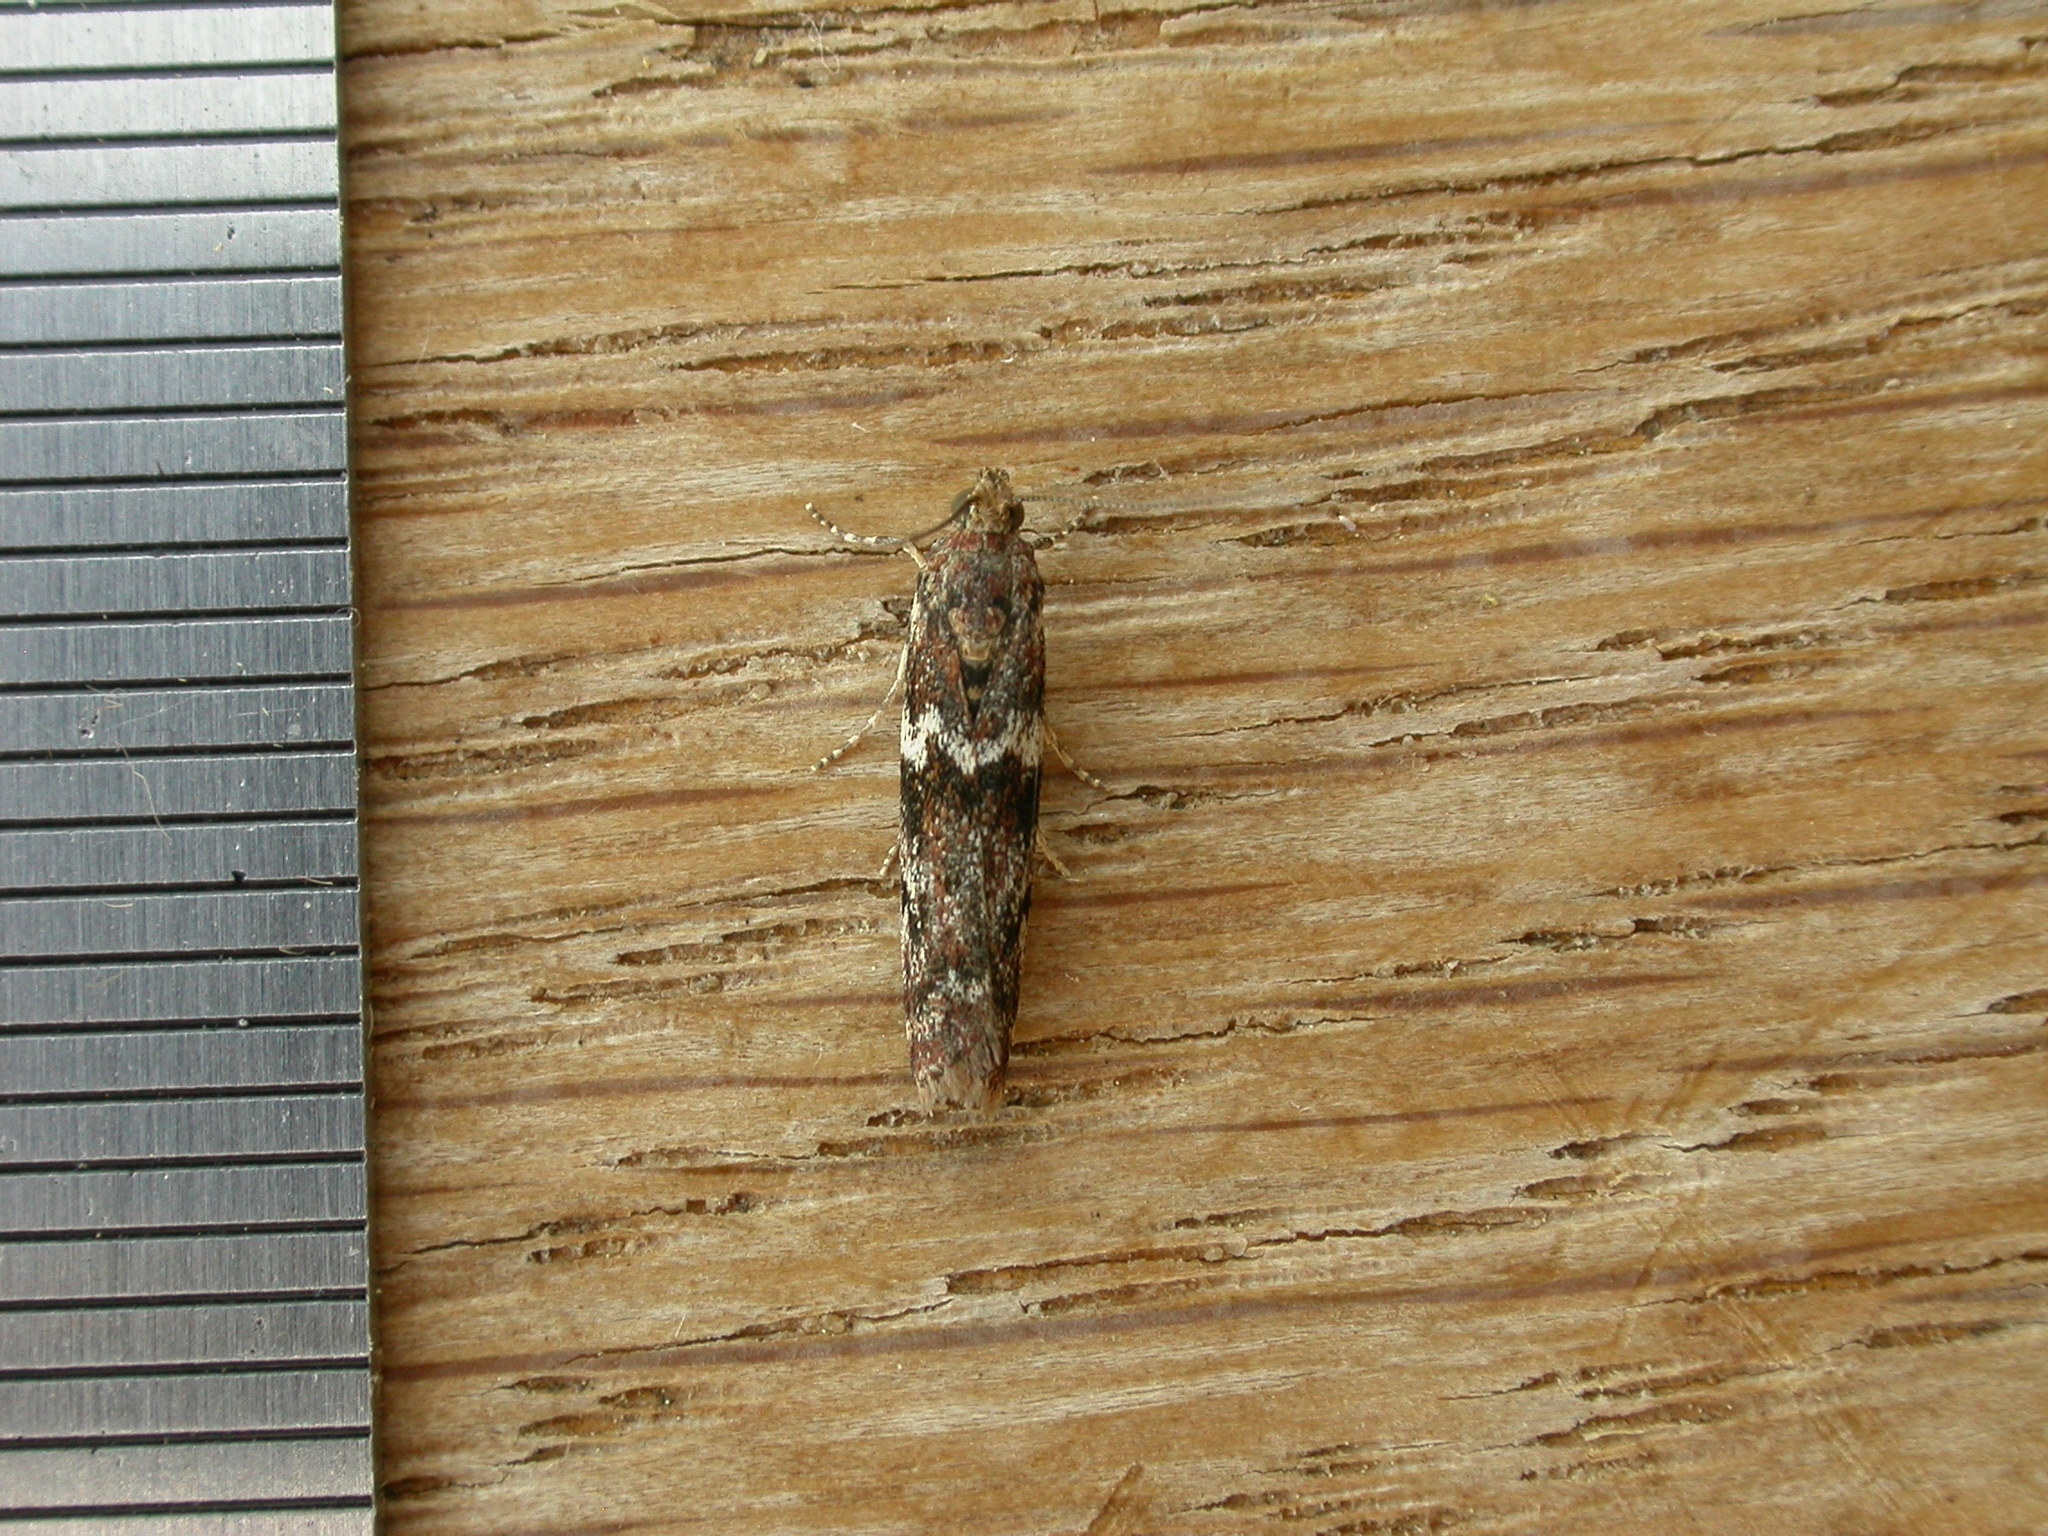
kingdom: Animalia
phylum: Arthropoda
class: Insecta
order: Lepidoptera
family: Pyralidae
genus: Ephestiopsis
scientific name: Ephestiopsis oenobarella
